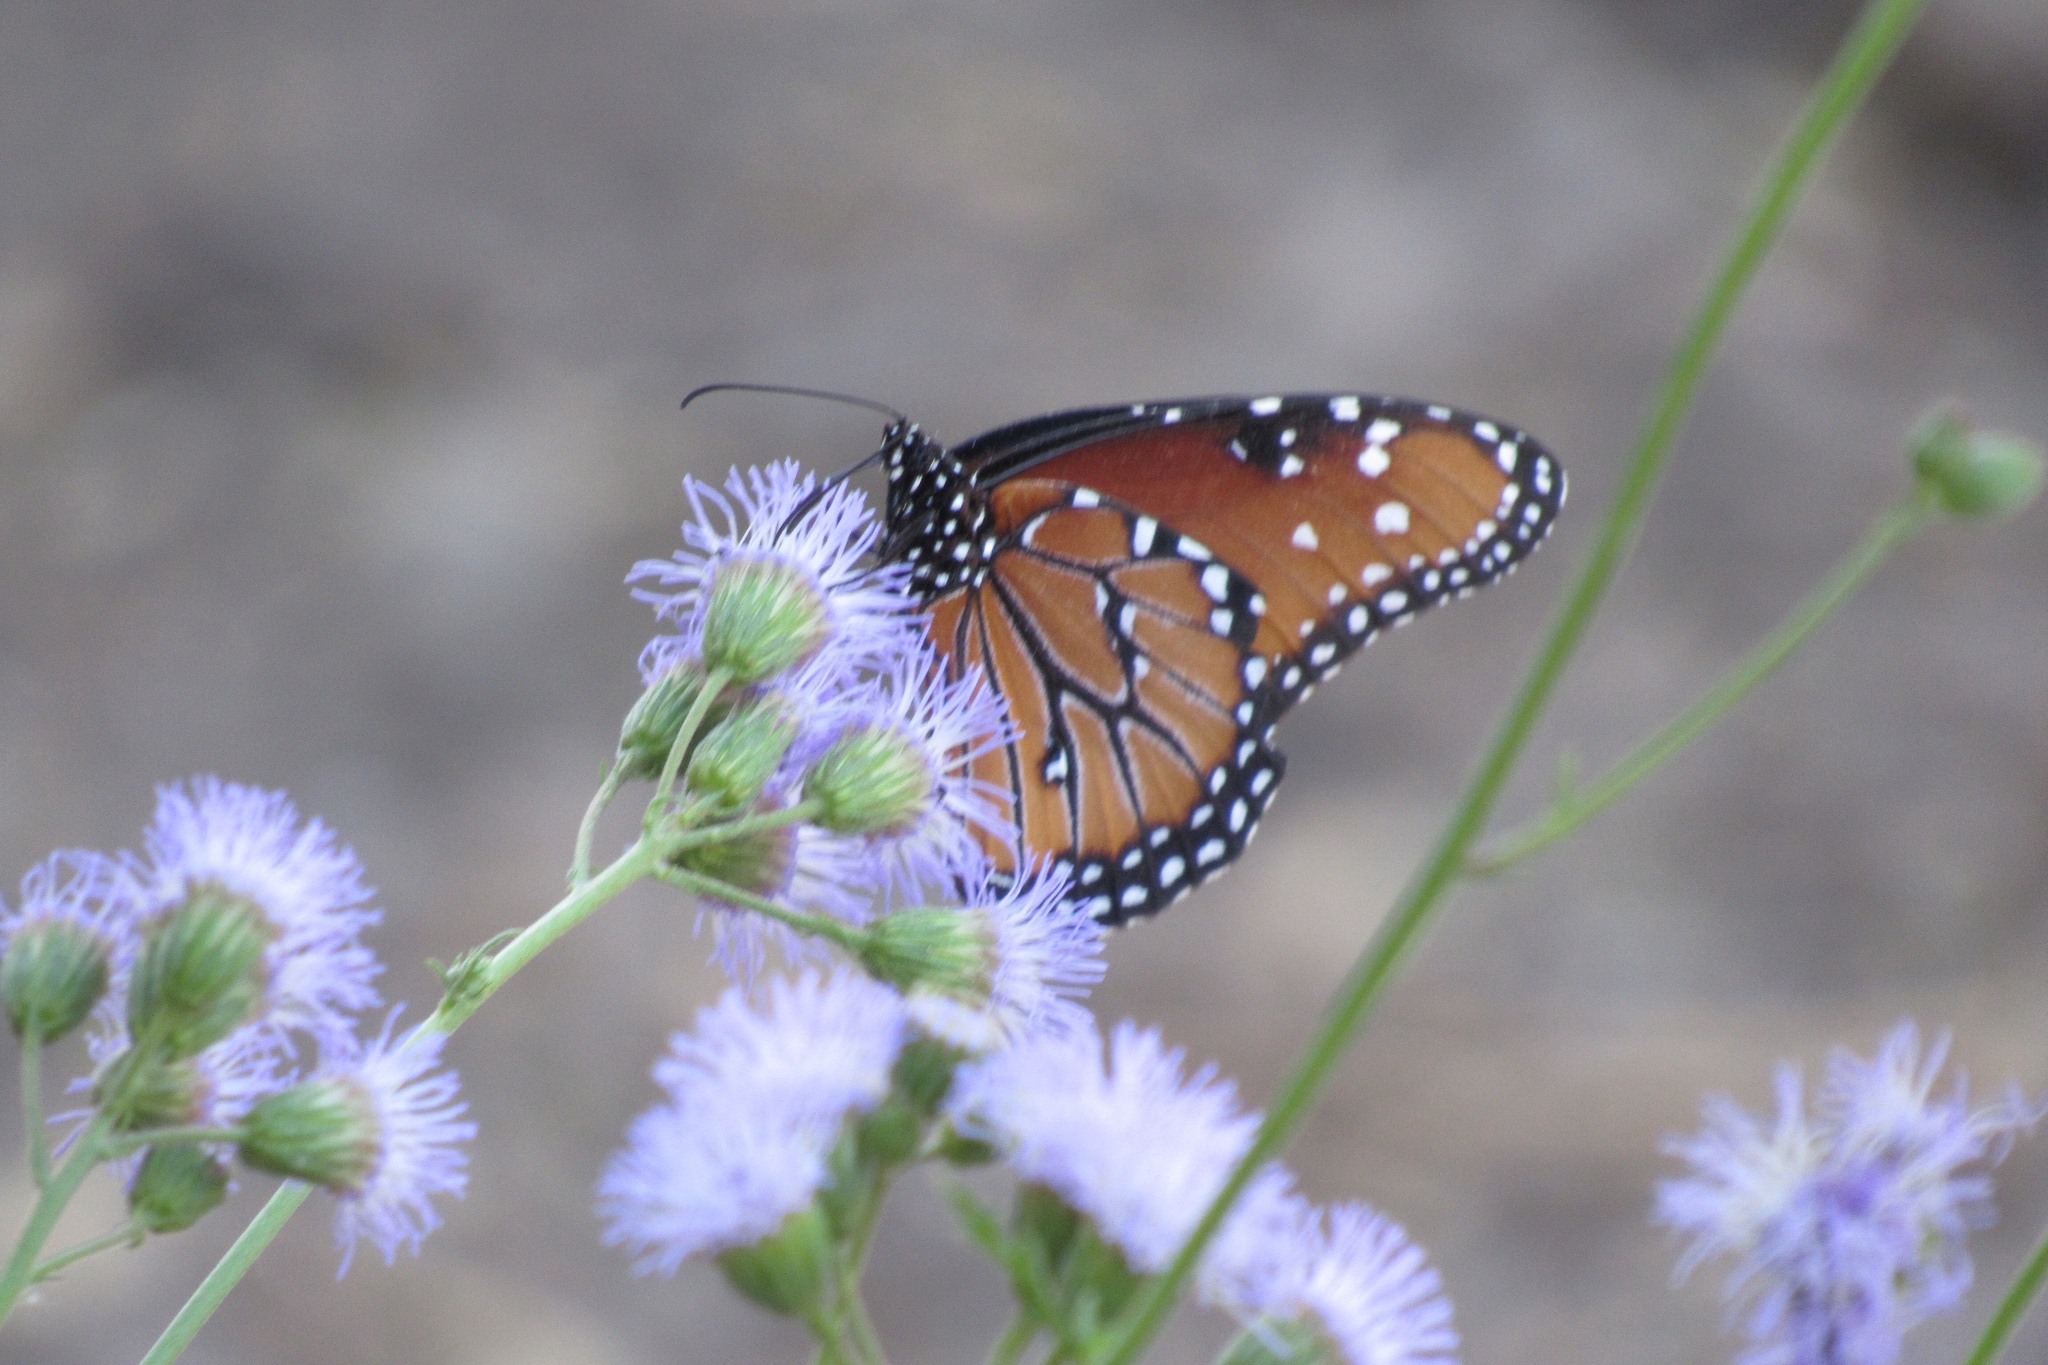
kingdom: Animalia
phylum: Arthropoda
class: Insecta
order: Lepidoptera
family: Nymphalidae
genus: Danaus
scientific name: Danaus gilippus
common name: Queen
